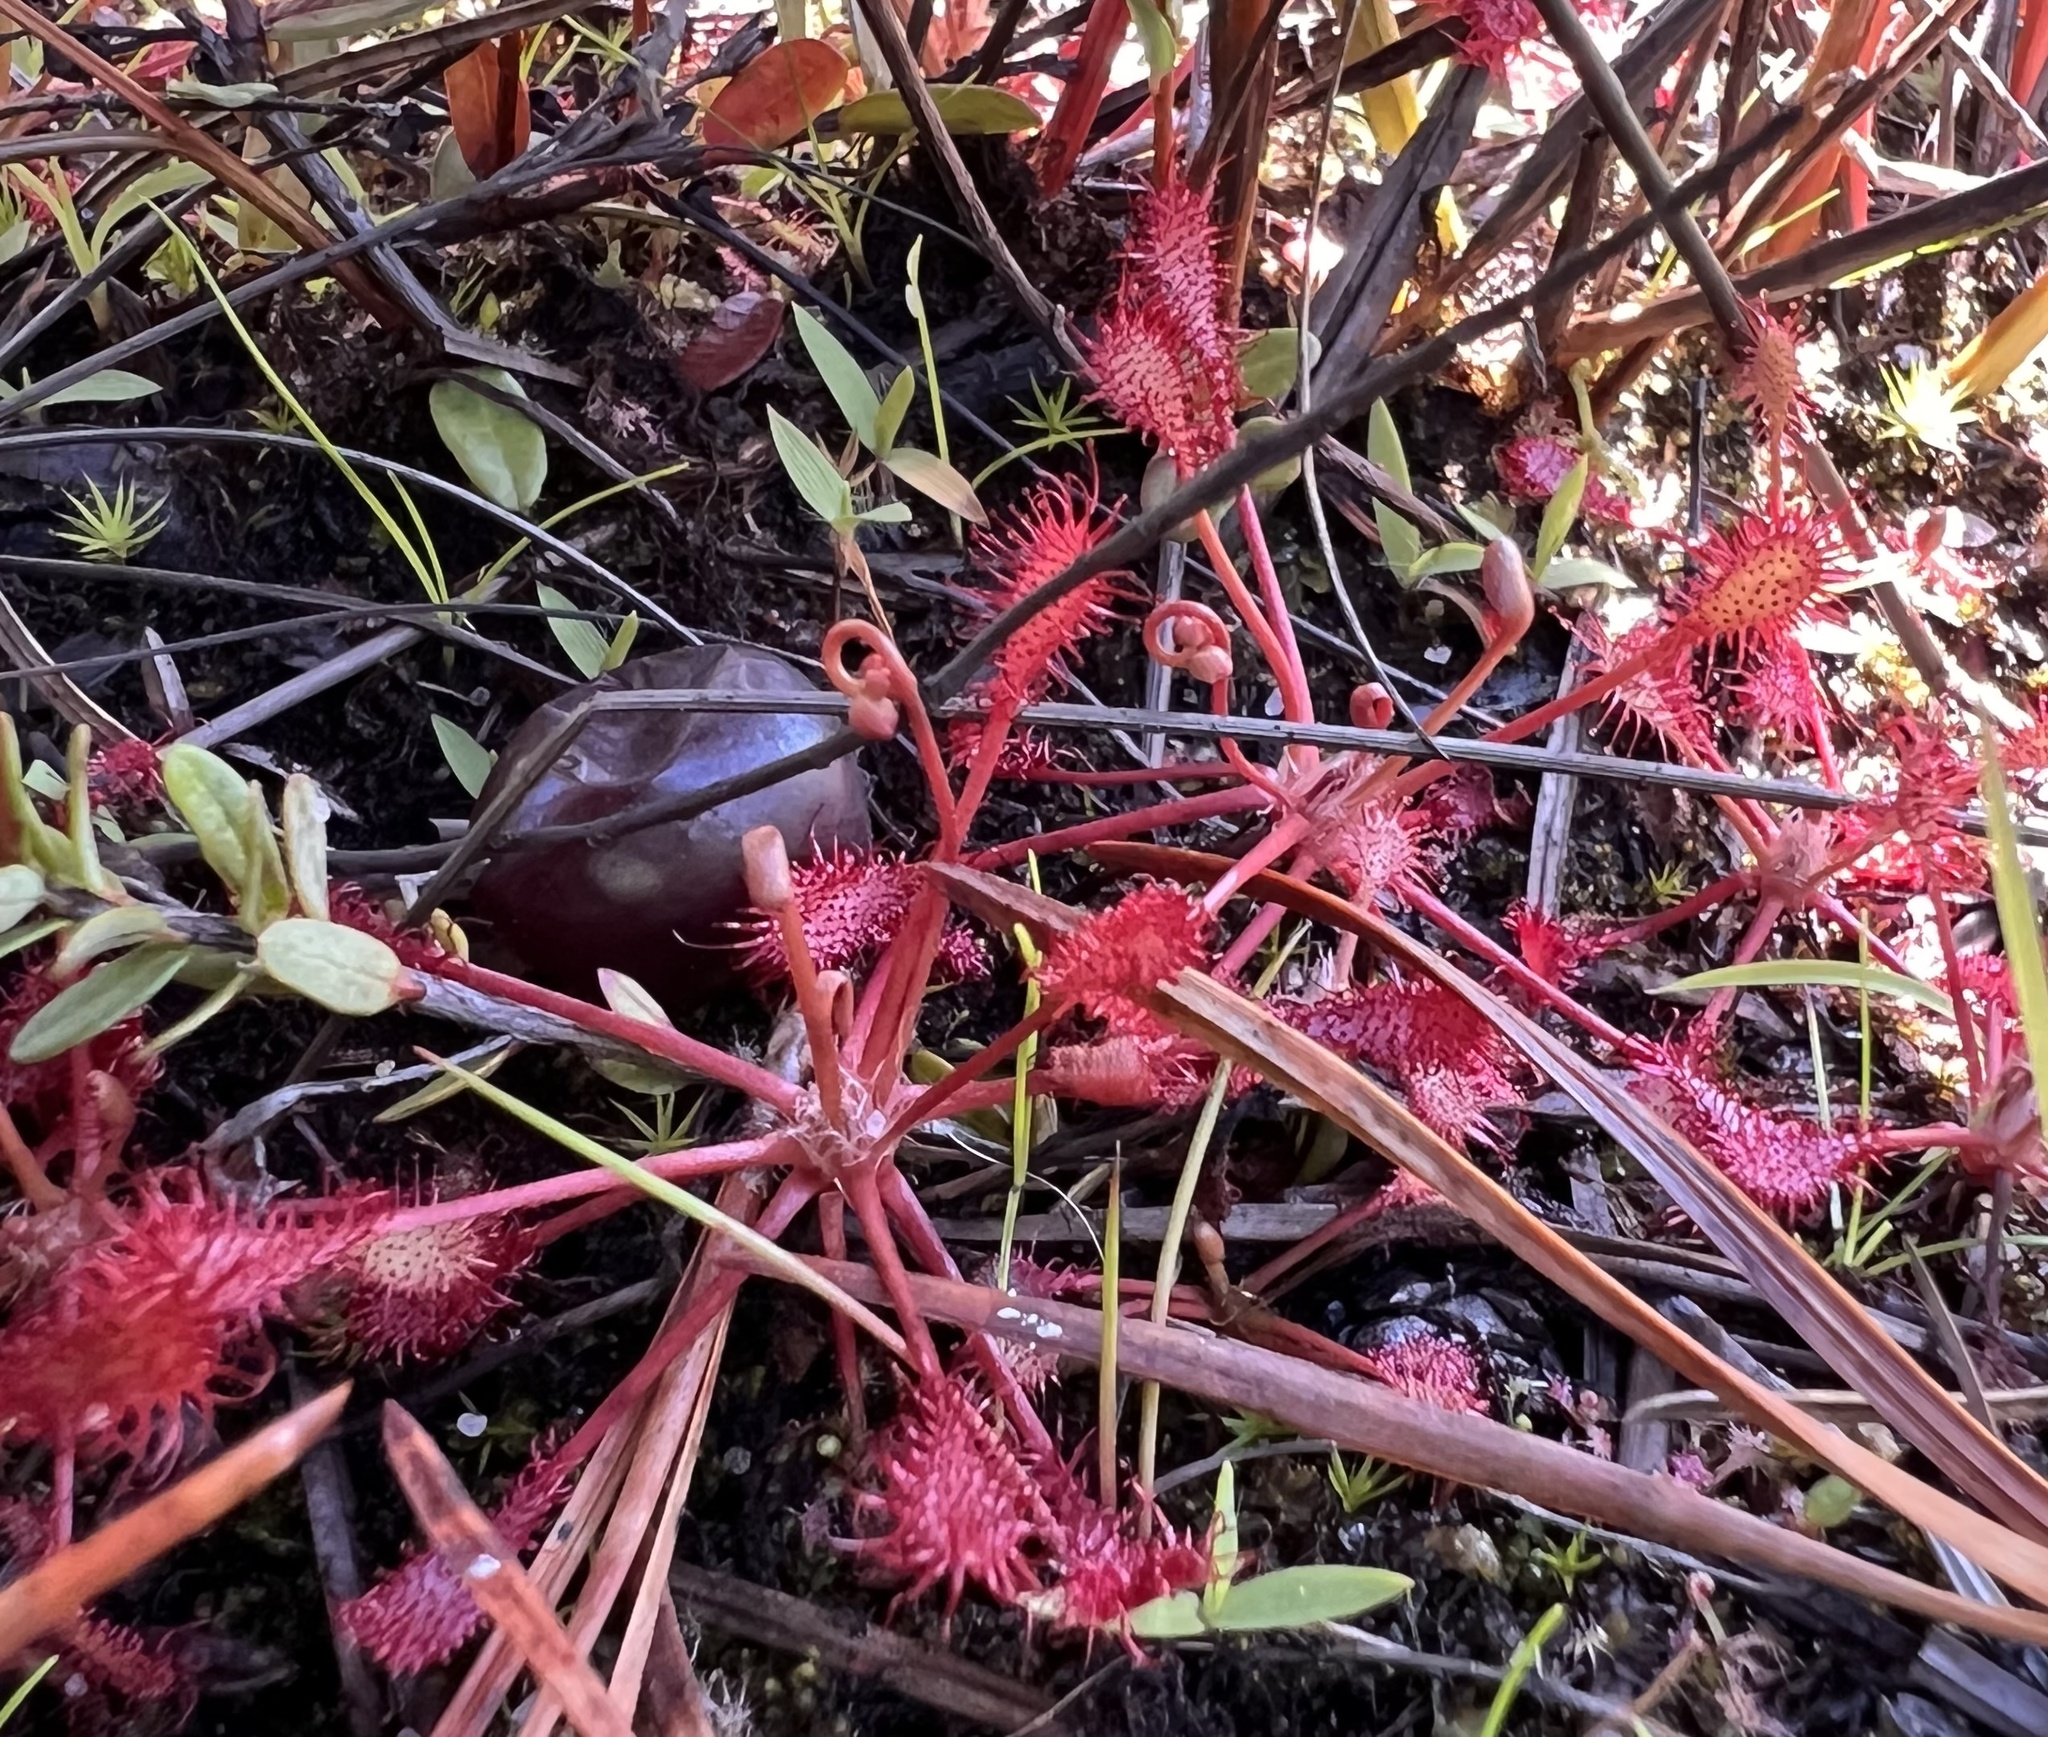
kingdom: Plantae
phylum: Tracheophyta
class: Magnoliopsida
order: Caryophyllales
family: Droseraceae
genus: Drosera
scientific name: Drosera intermedia
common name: Oblong-leaved sundew
